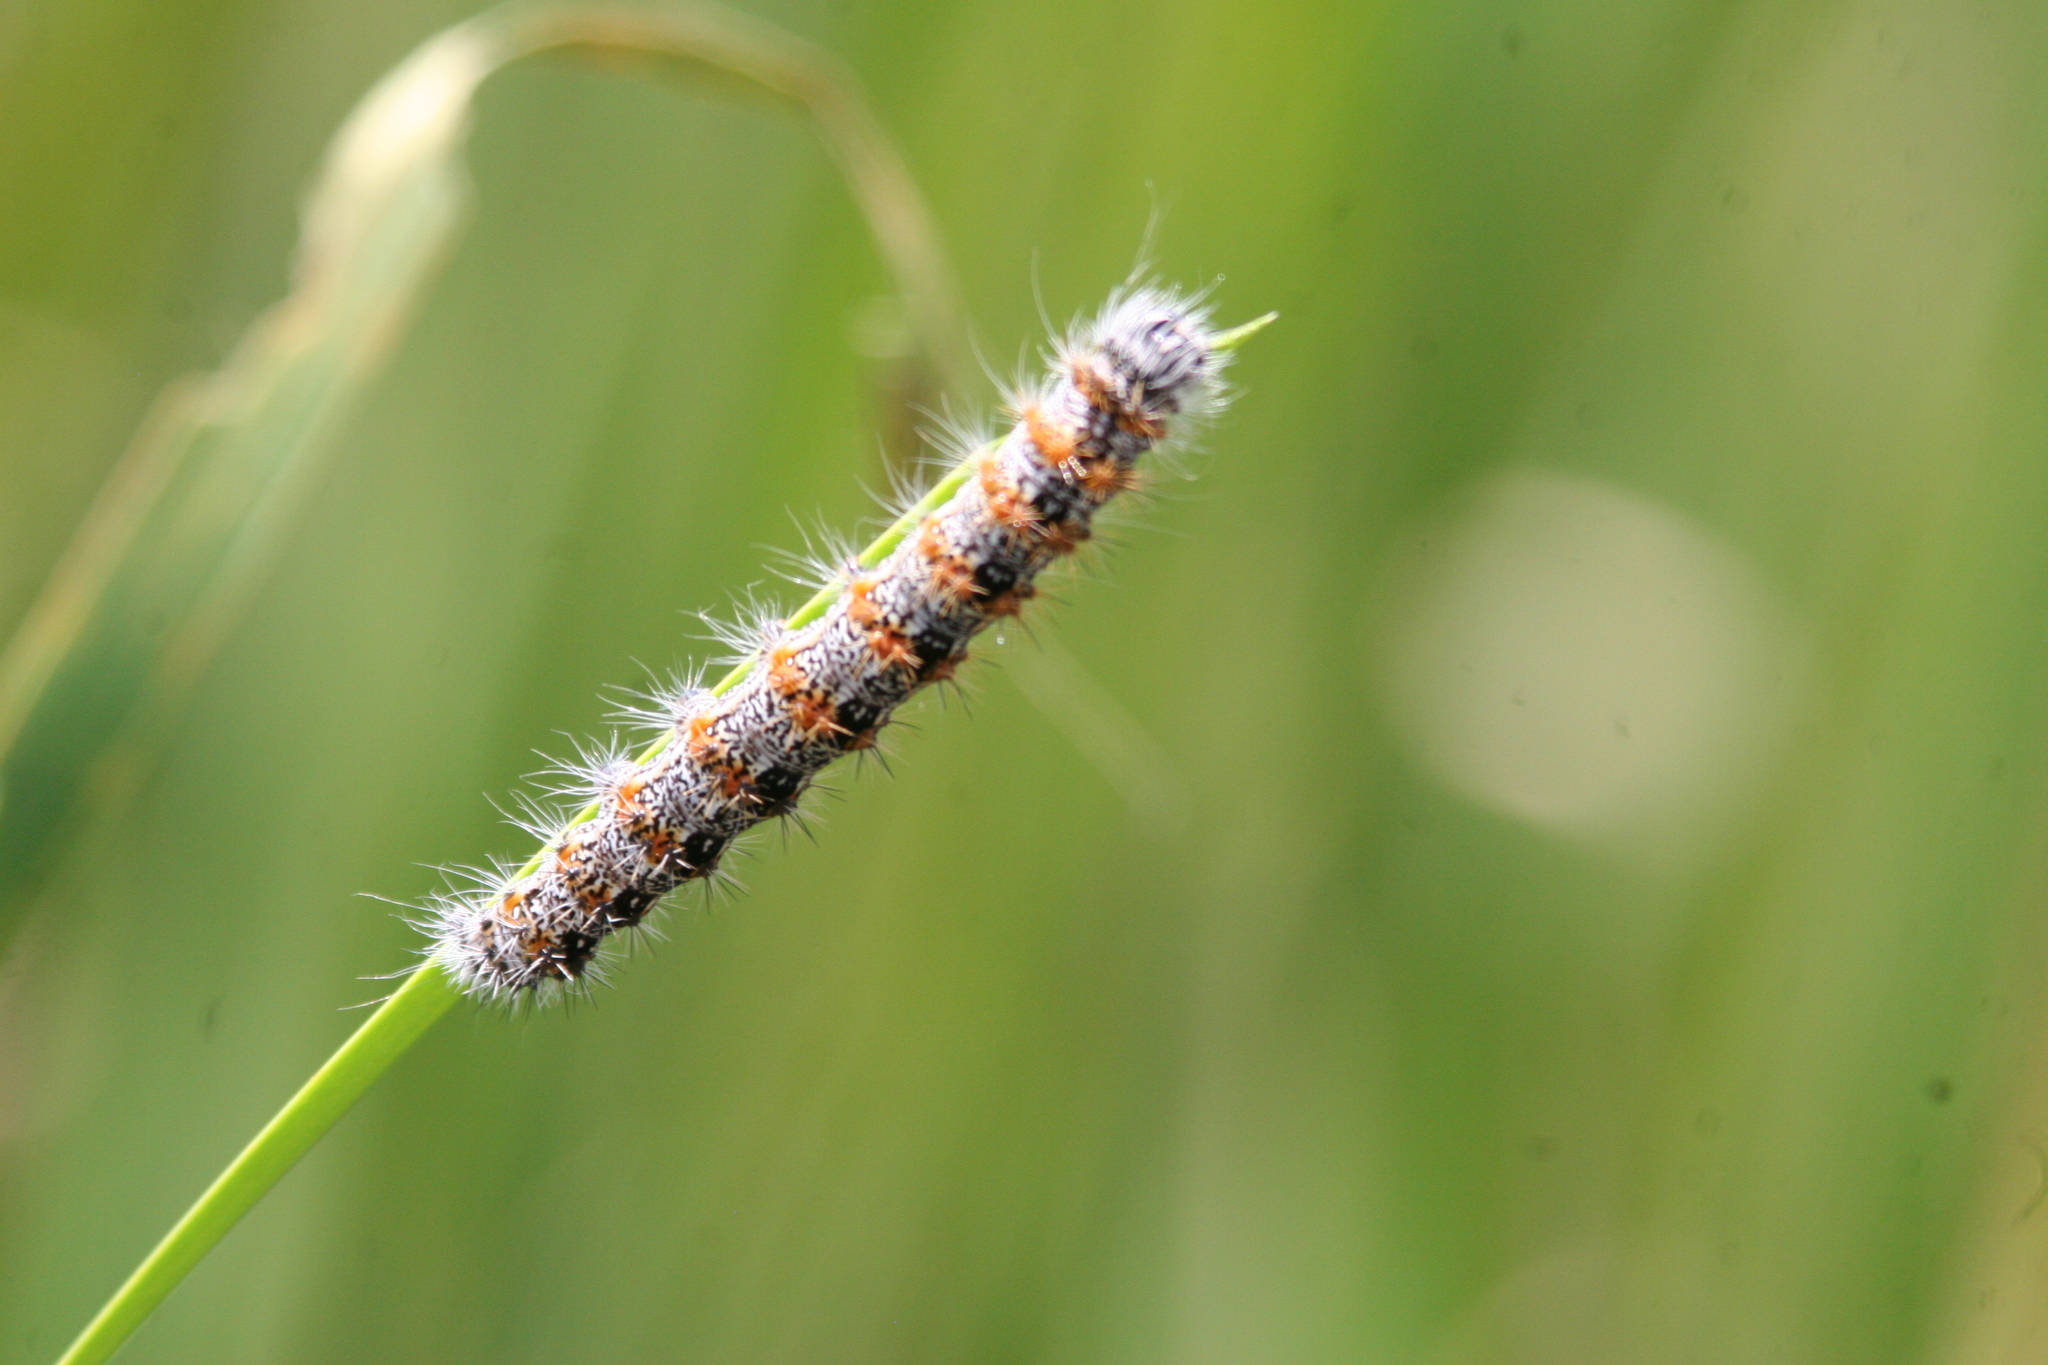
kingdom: Animalia
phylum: Arthropoda
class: Insecta
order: Lepidoptera
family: Noctuidae
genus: Acronicta
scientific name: Acronicta insularis
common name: Henry's marsh moth
